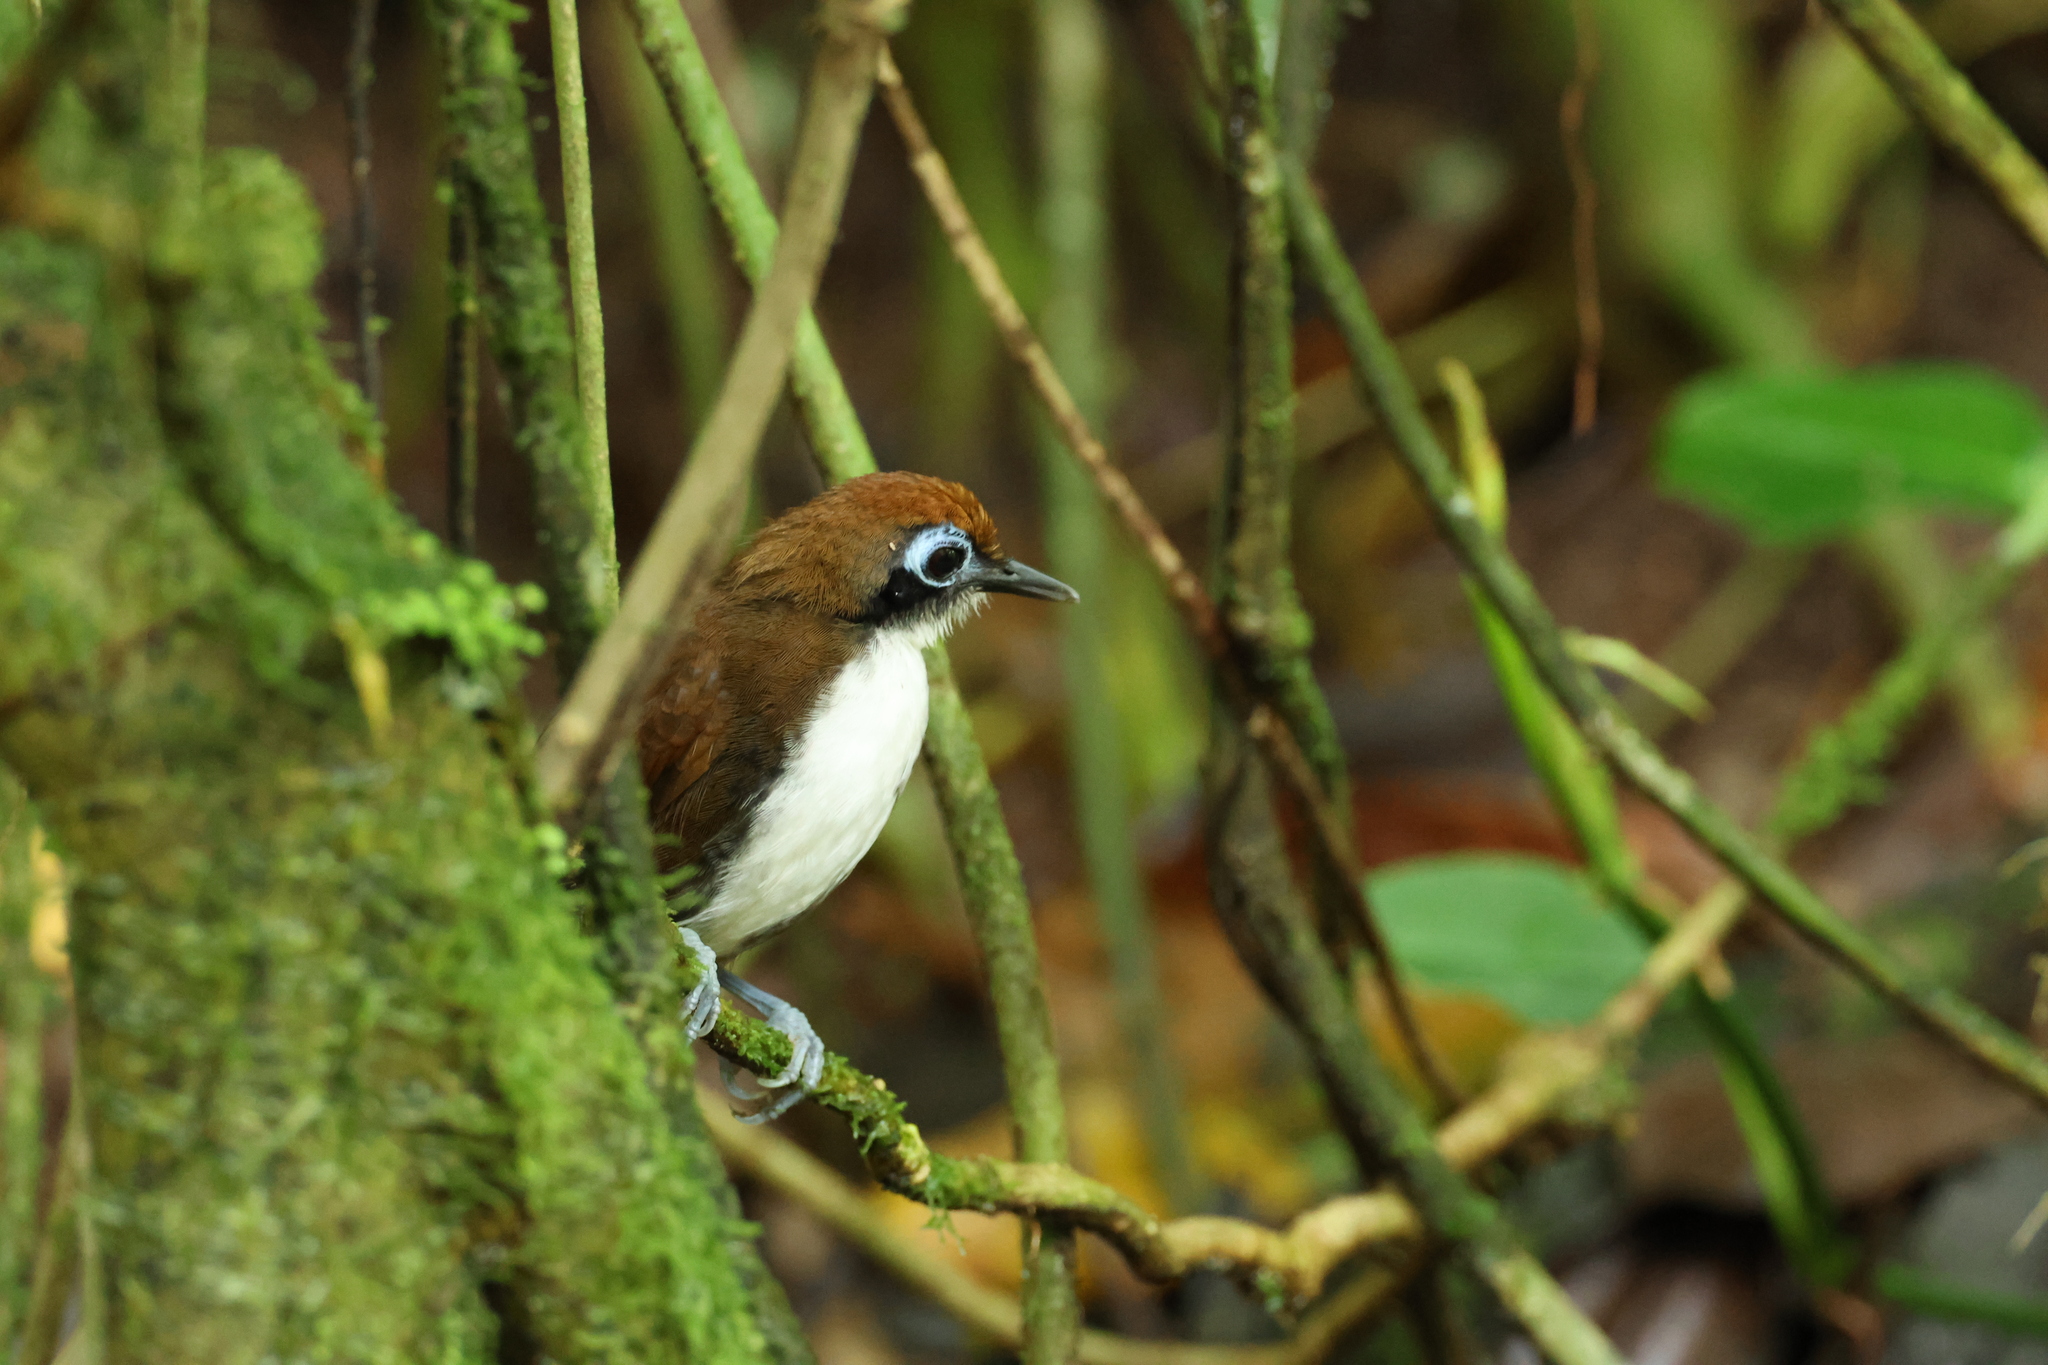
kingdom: Animalia
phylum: Chordata
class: Aves
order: Passeriformes
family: Thamnophilidae
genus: Gymnopithys
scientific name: Gymnopithys leucaspis
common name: White-cheeked antbird
